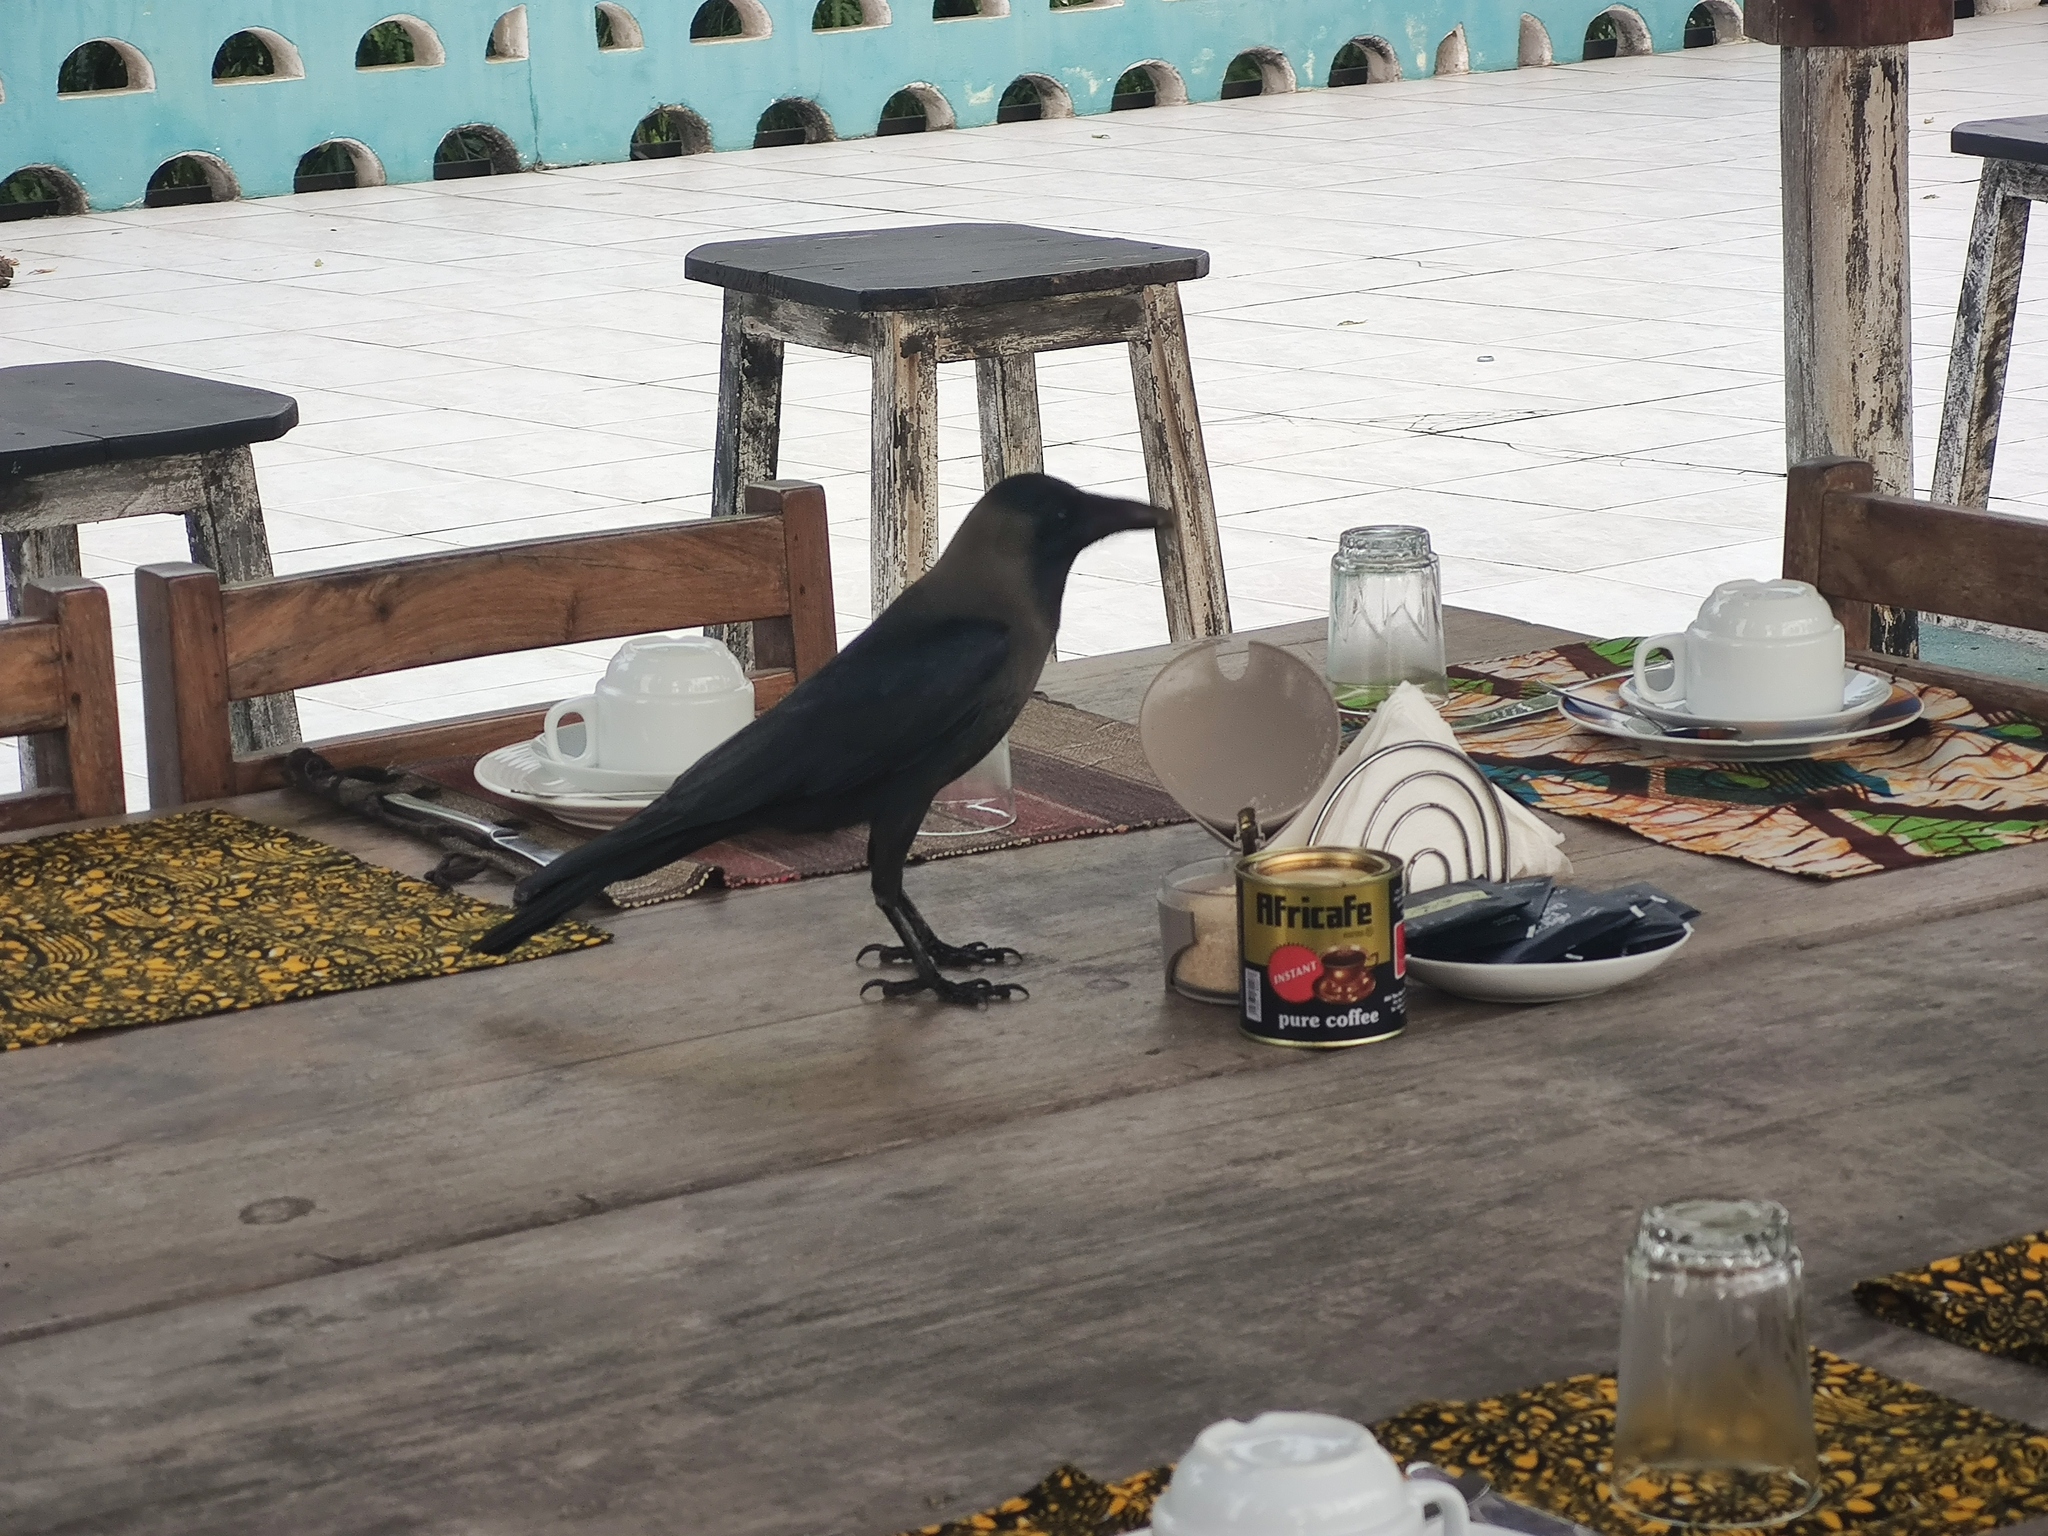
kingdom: Animalia
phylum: Chordata
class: Aves
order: Passeriformes
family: Corvidae
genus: Corvus
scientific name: Corvus splendens
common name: House crow
